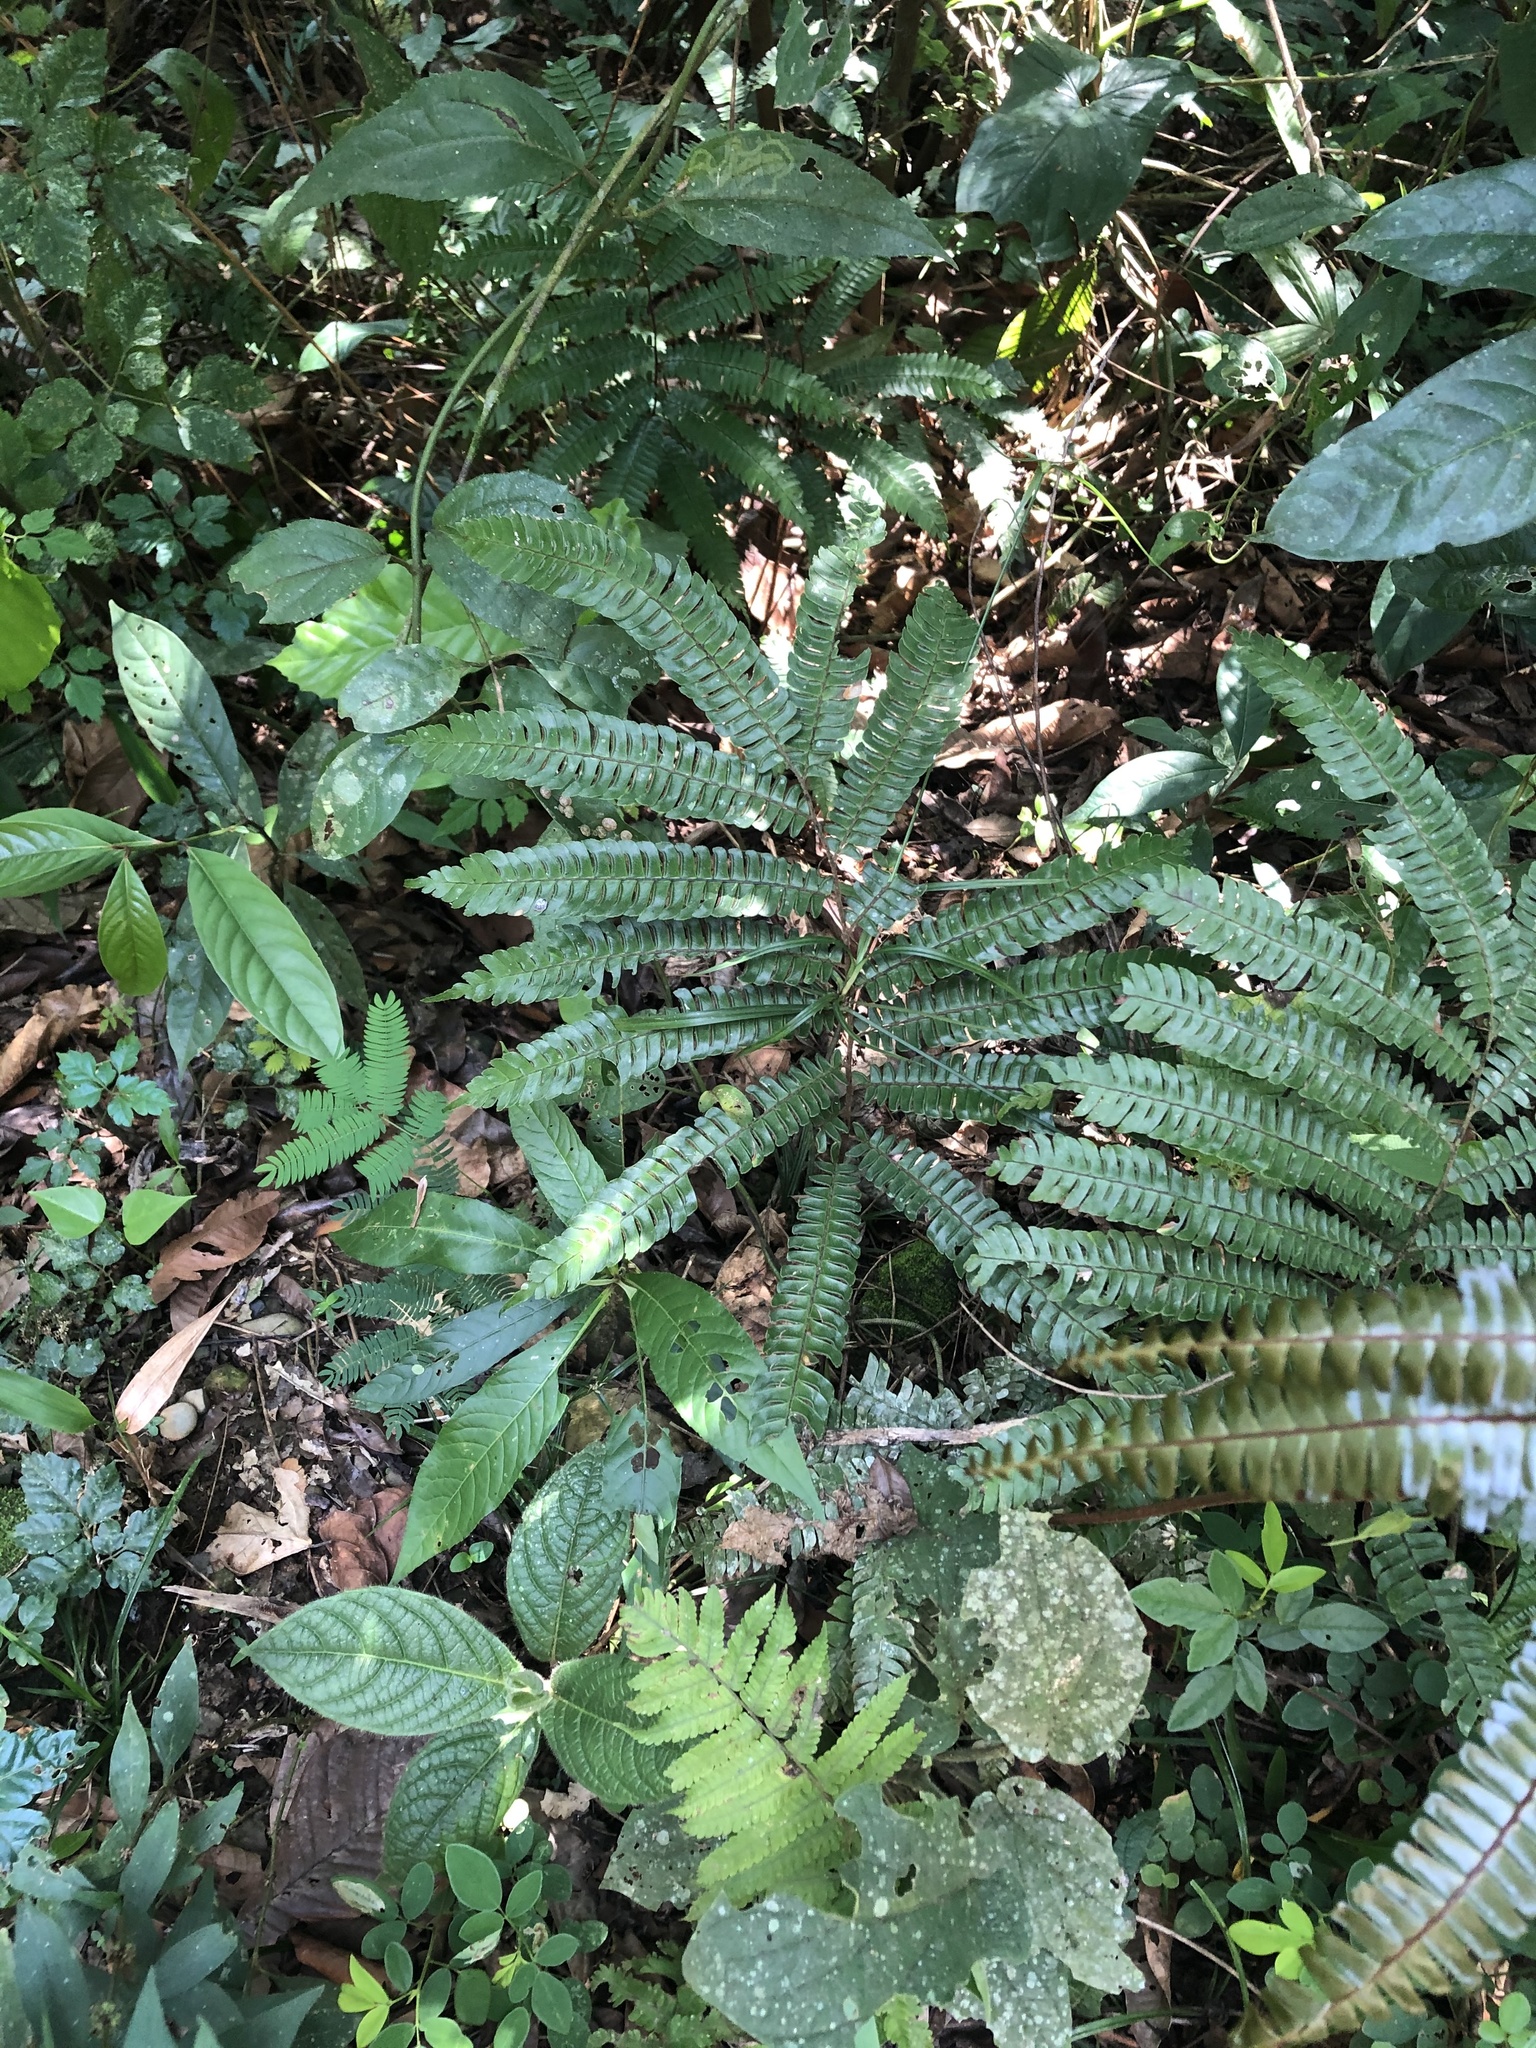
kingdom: Plantae
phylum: Tracheophyta
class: Polypodiopsida
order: Polypodiales
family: Pteridaceae
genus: Adiantum
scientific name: Adiantum pulverulentum
